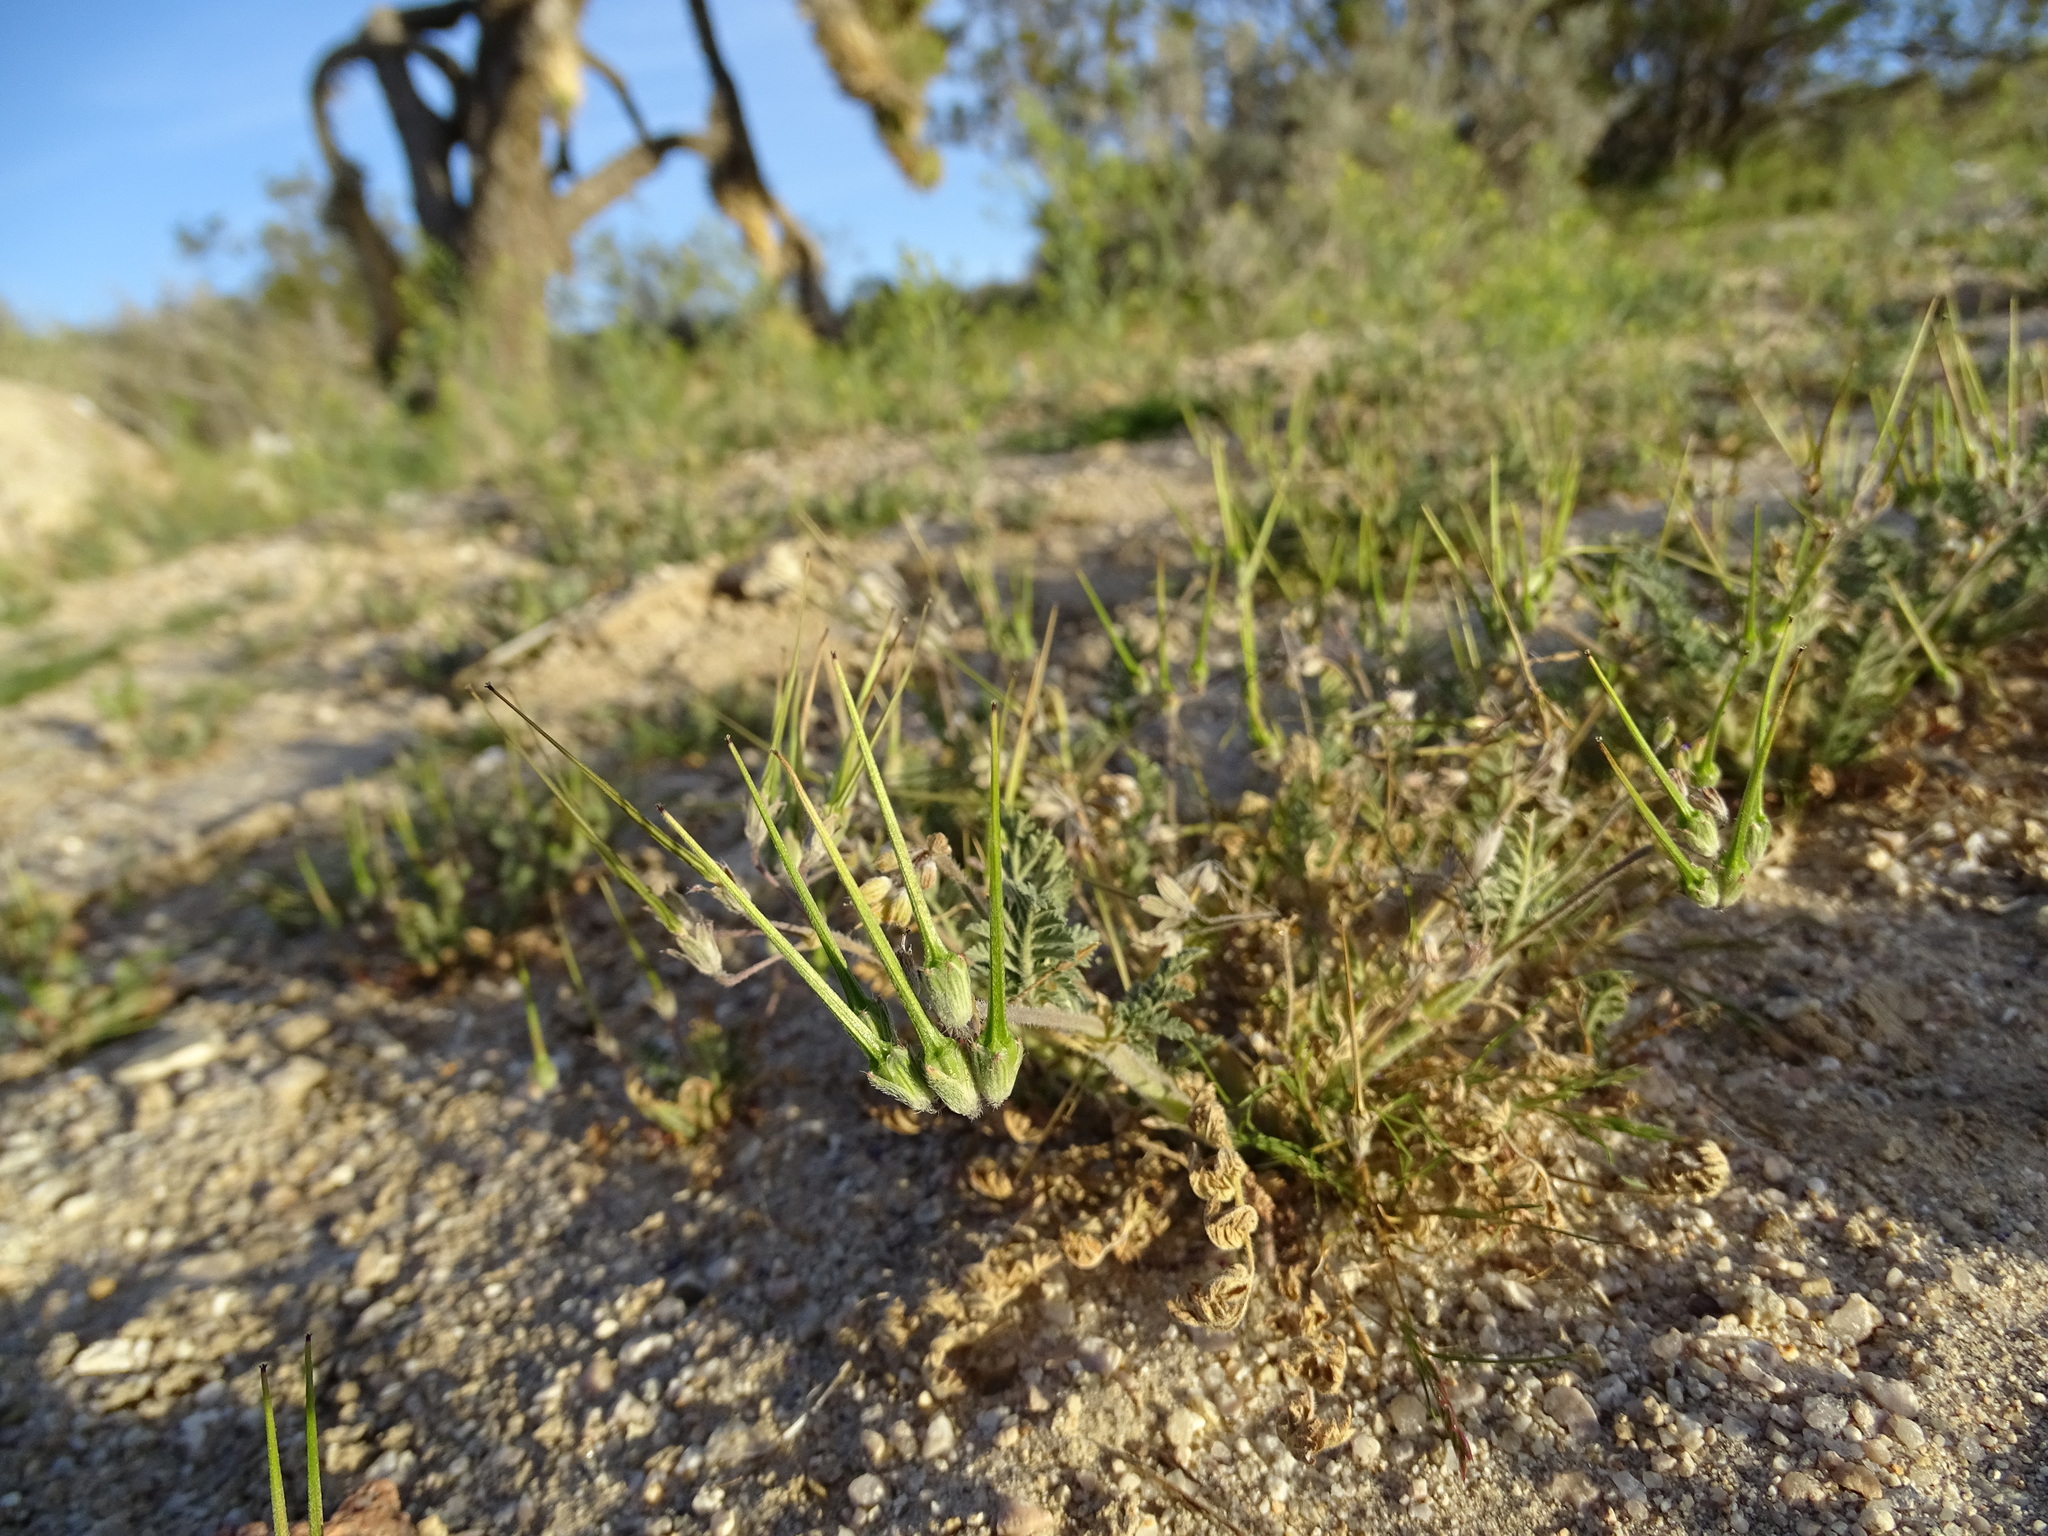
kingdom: Plantae
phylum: Tracheophyta
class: Magnoliopsida
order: Geraniales
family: Geraniaceae
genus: Erodium
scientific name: Erodium cicutarium
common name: Common stork's-bill
